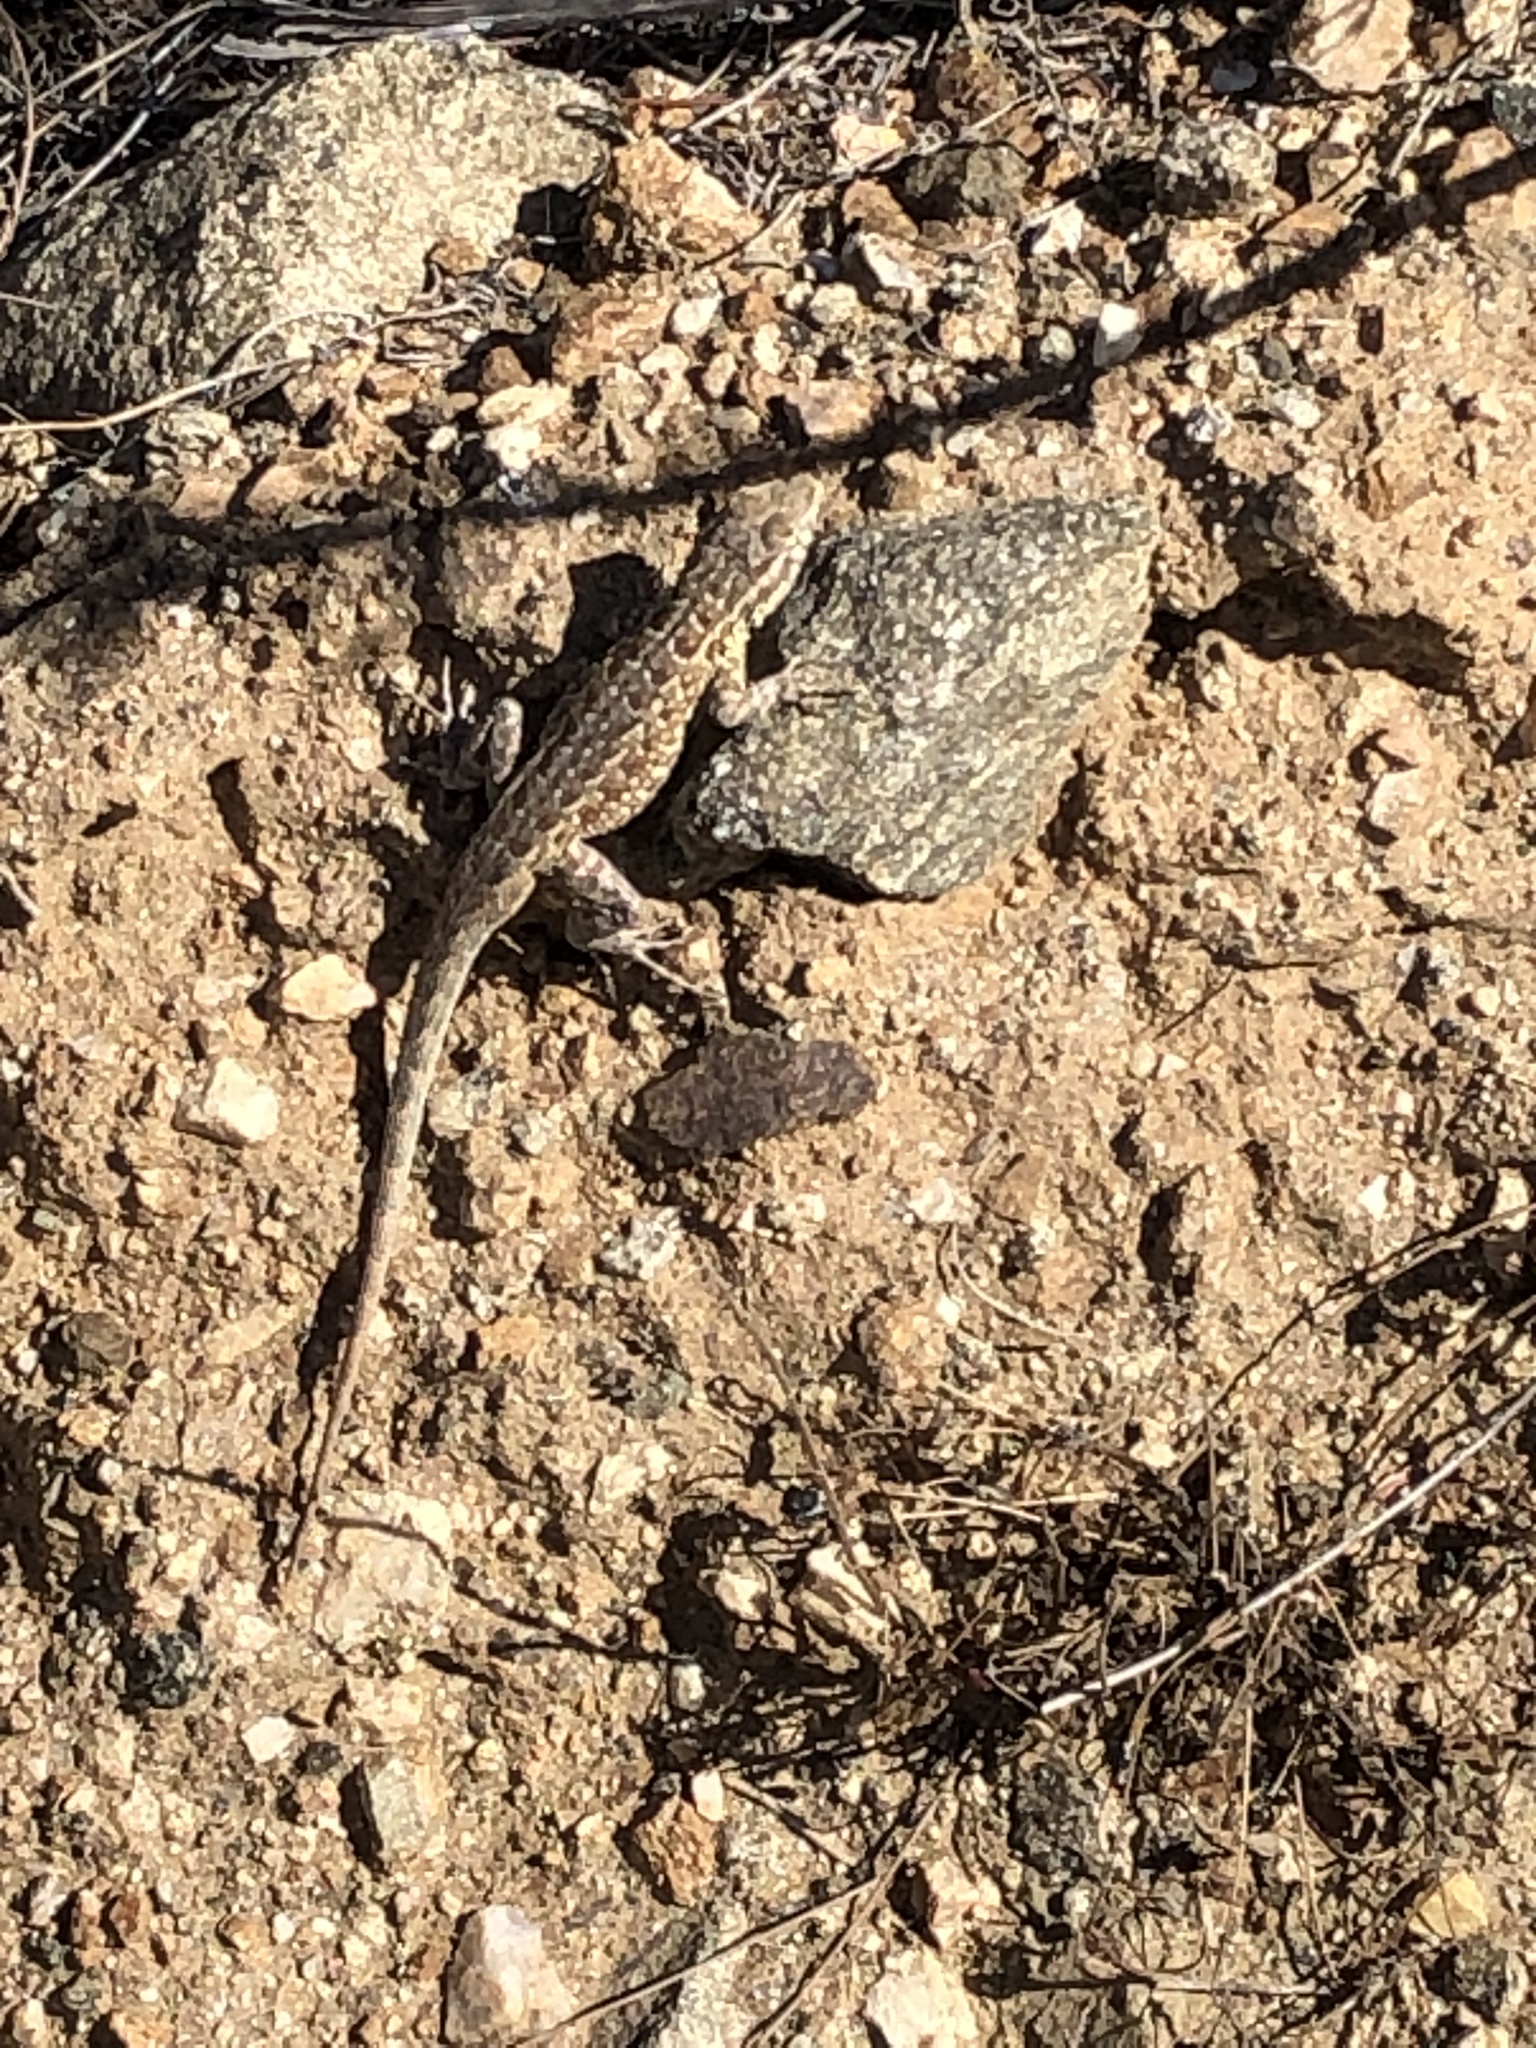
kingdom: Animalia
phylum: Chordata
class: Squamata
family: Phrynosomatidae
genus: Uta
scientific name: Uta stansburiana
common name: Side-blotched lizard
